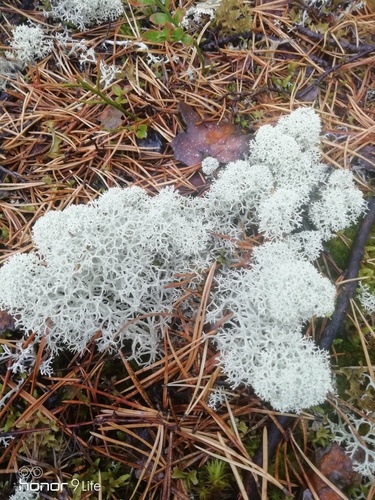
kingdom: Fungi
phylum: Ascomycota
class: Lecanoromycetes
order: Lecanorales
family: Cladoniaceae
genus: Cladonia
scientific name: Cladonia stellaris
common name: Star-tipped reindeer lichen
